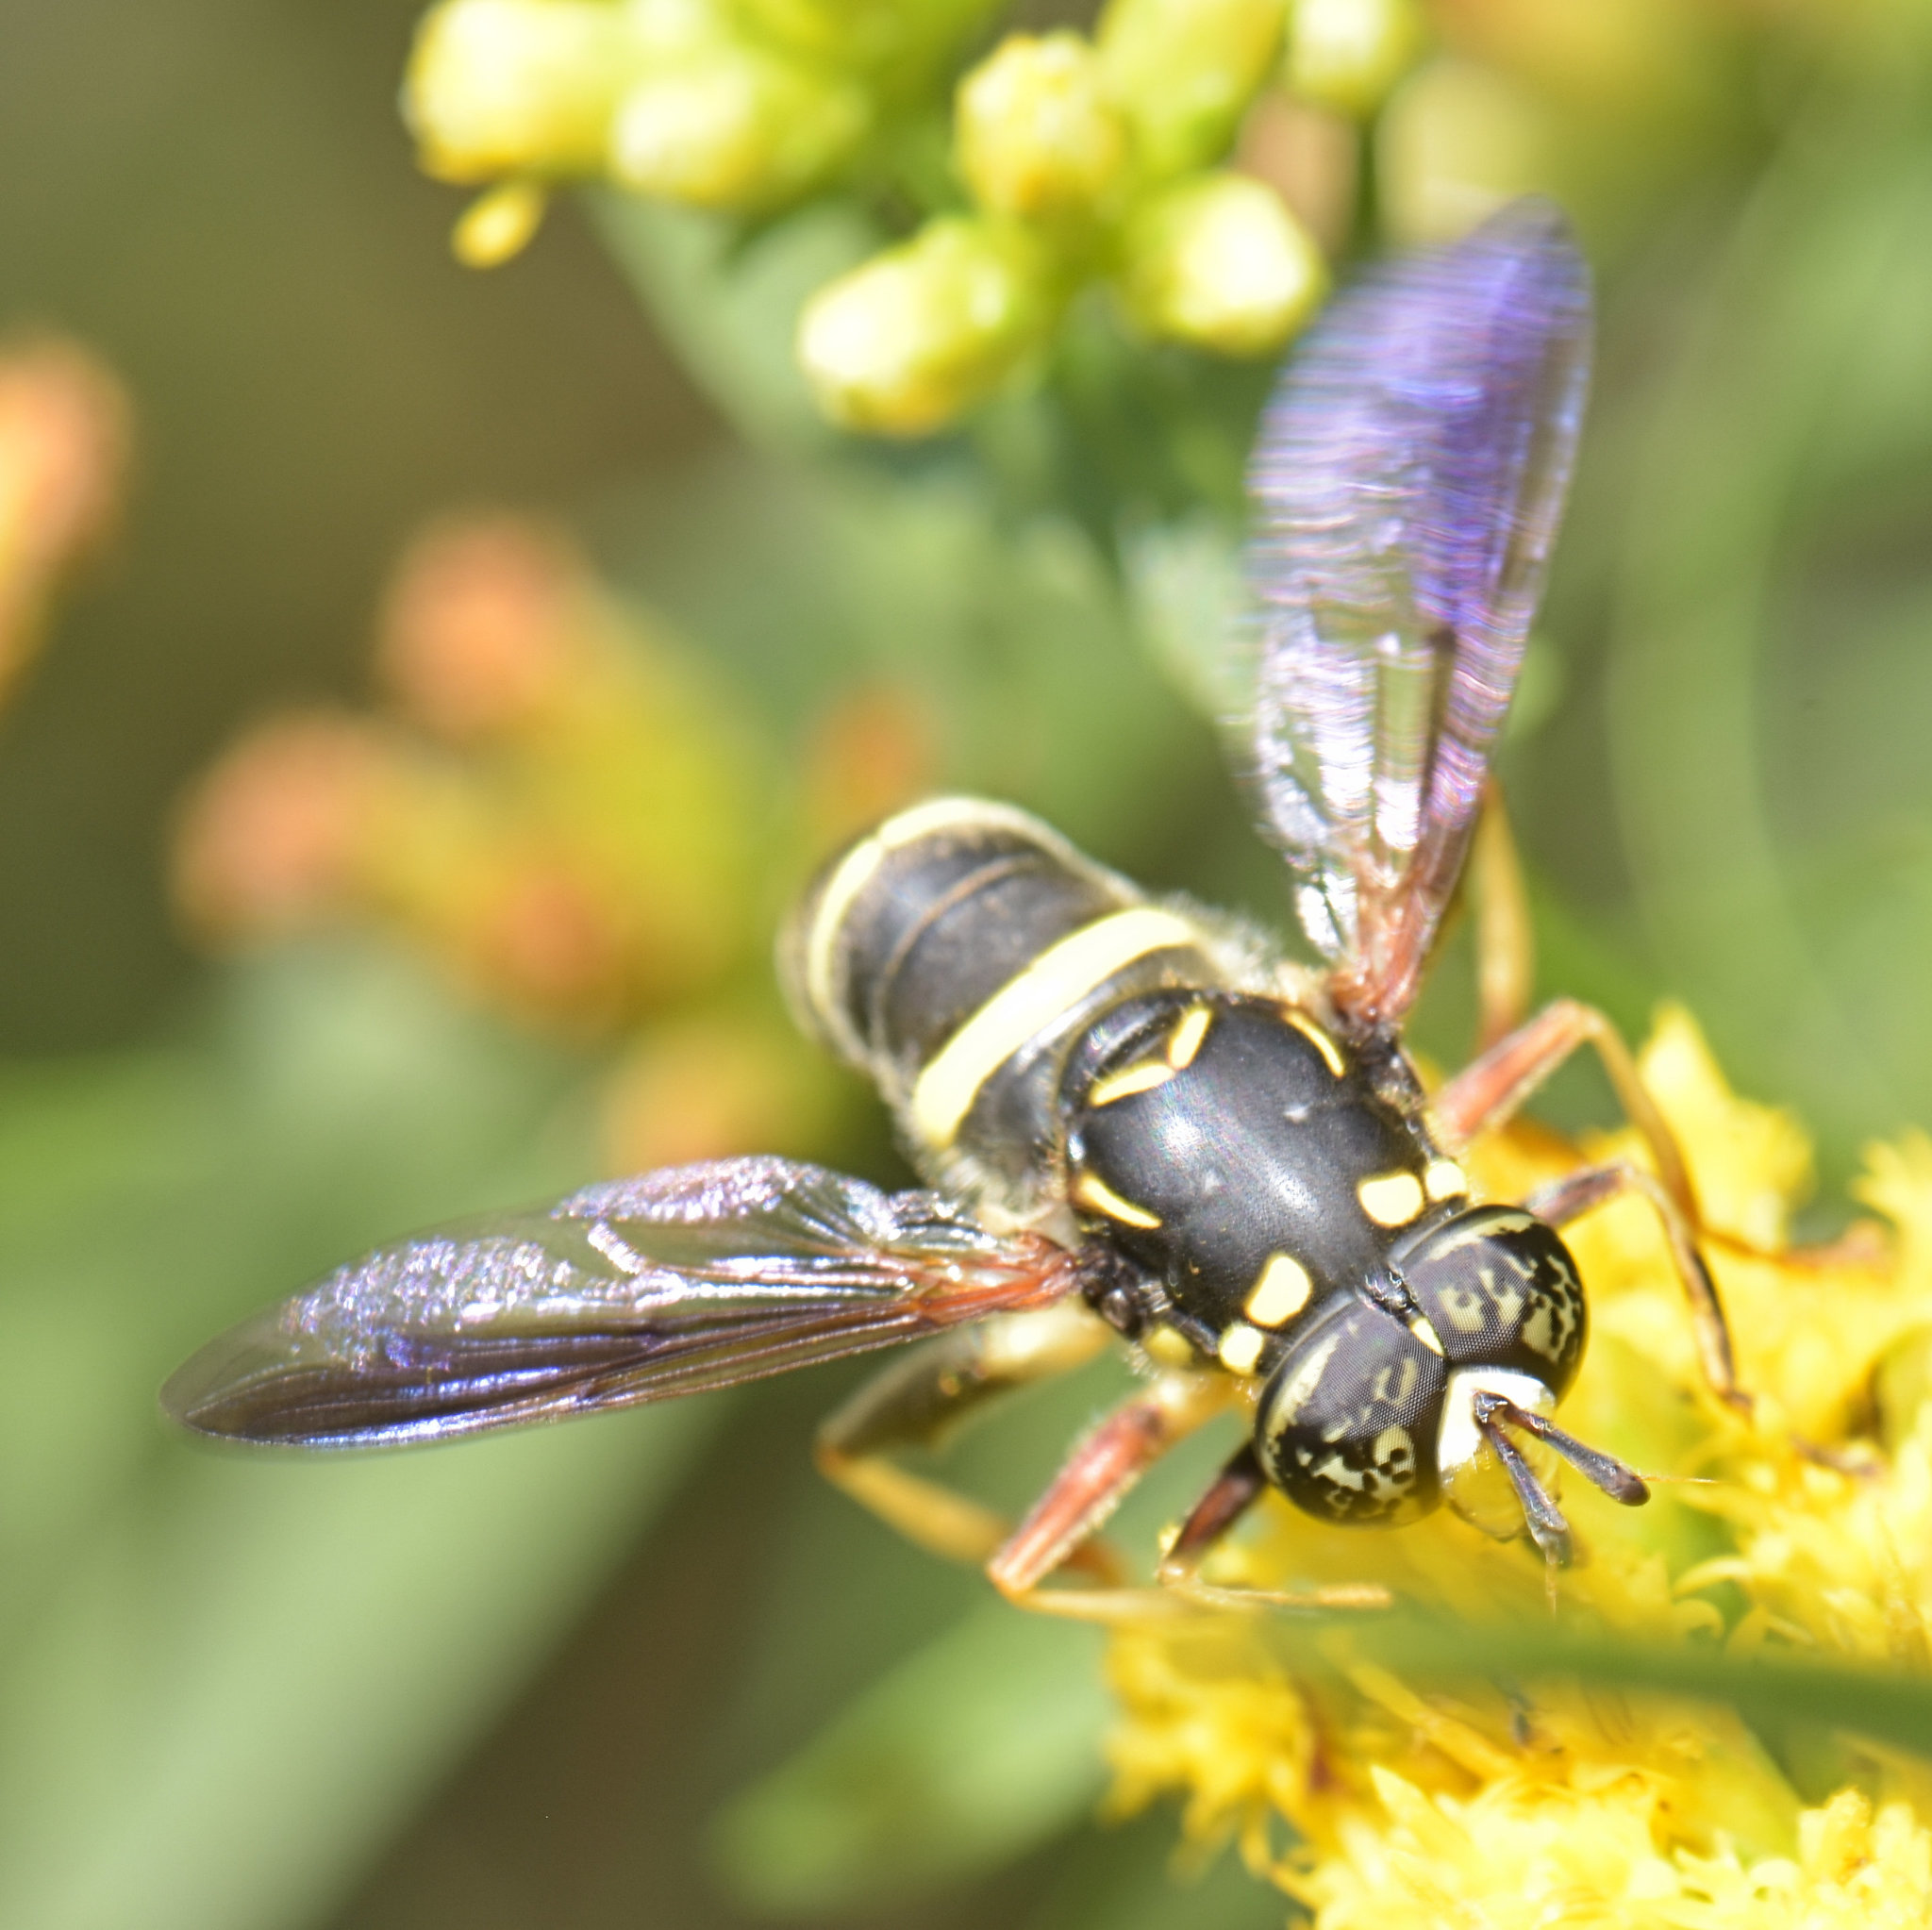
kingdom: Animalia
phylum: Arthropoda
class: Insecta
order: Diptera
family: Syrphidae
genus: Spilomyia
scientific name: Spilomyia sayi
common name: Four-lined hornet fly
